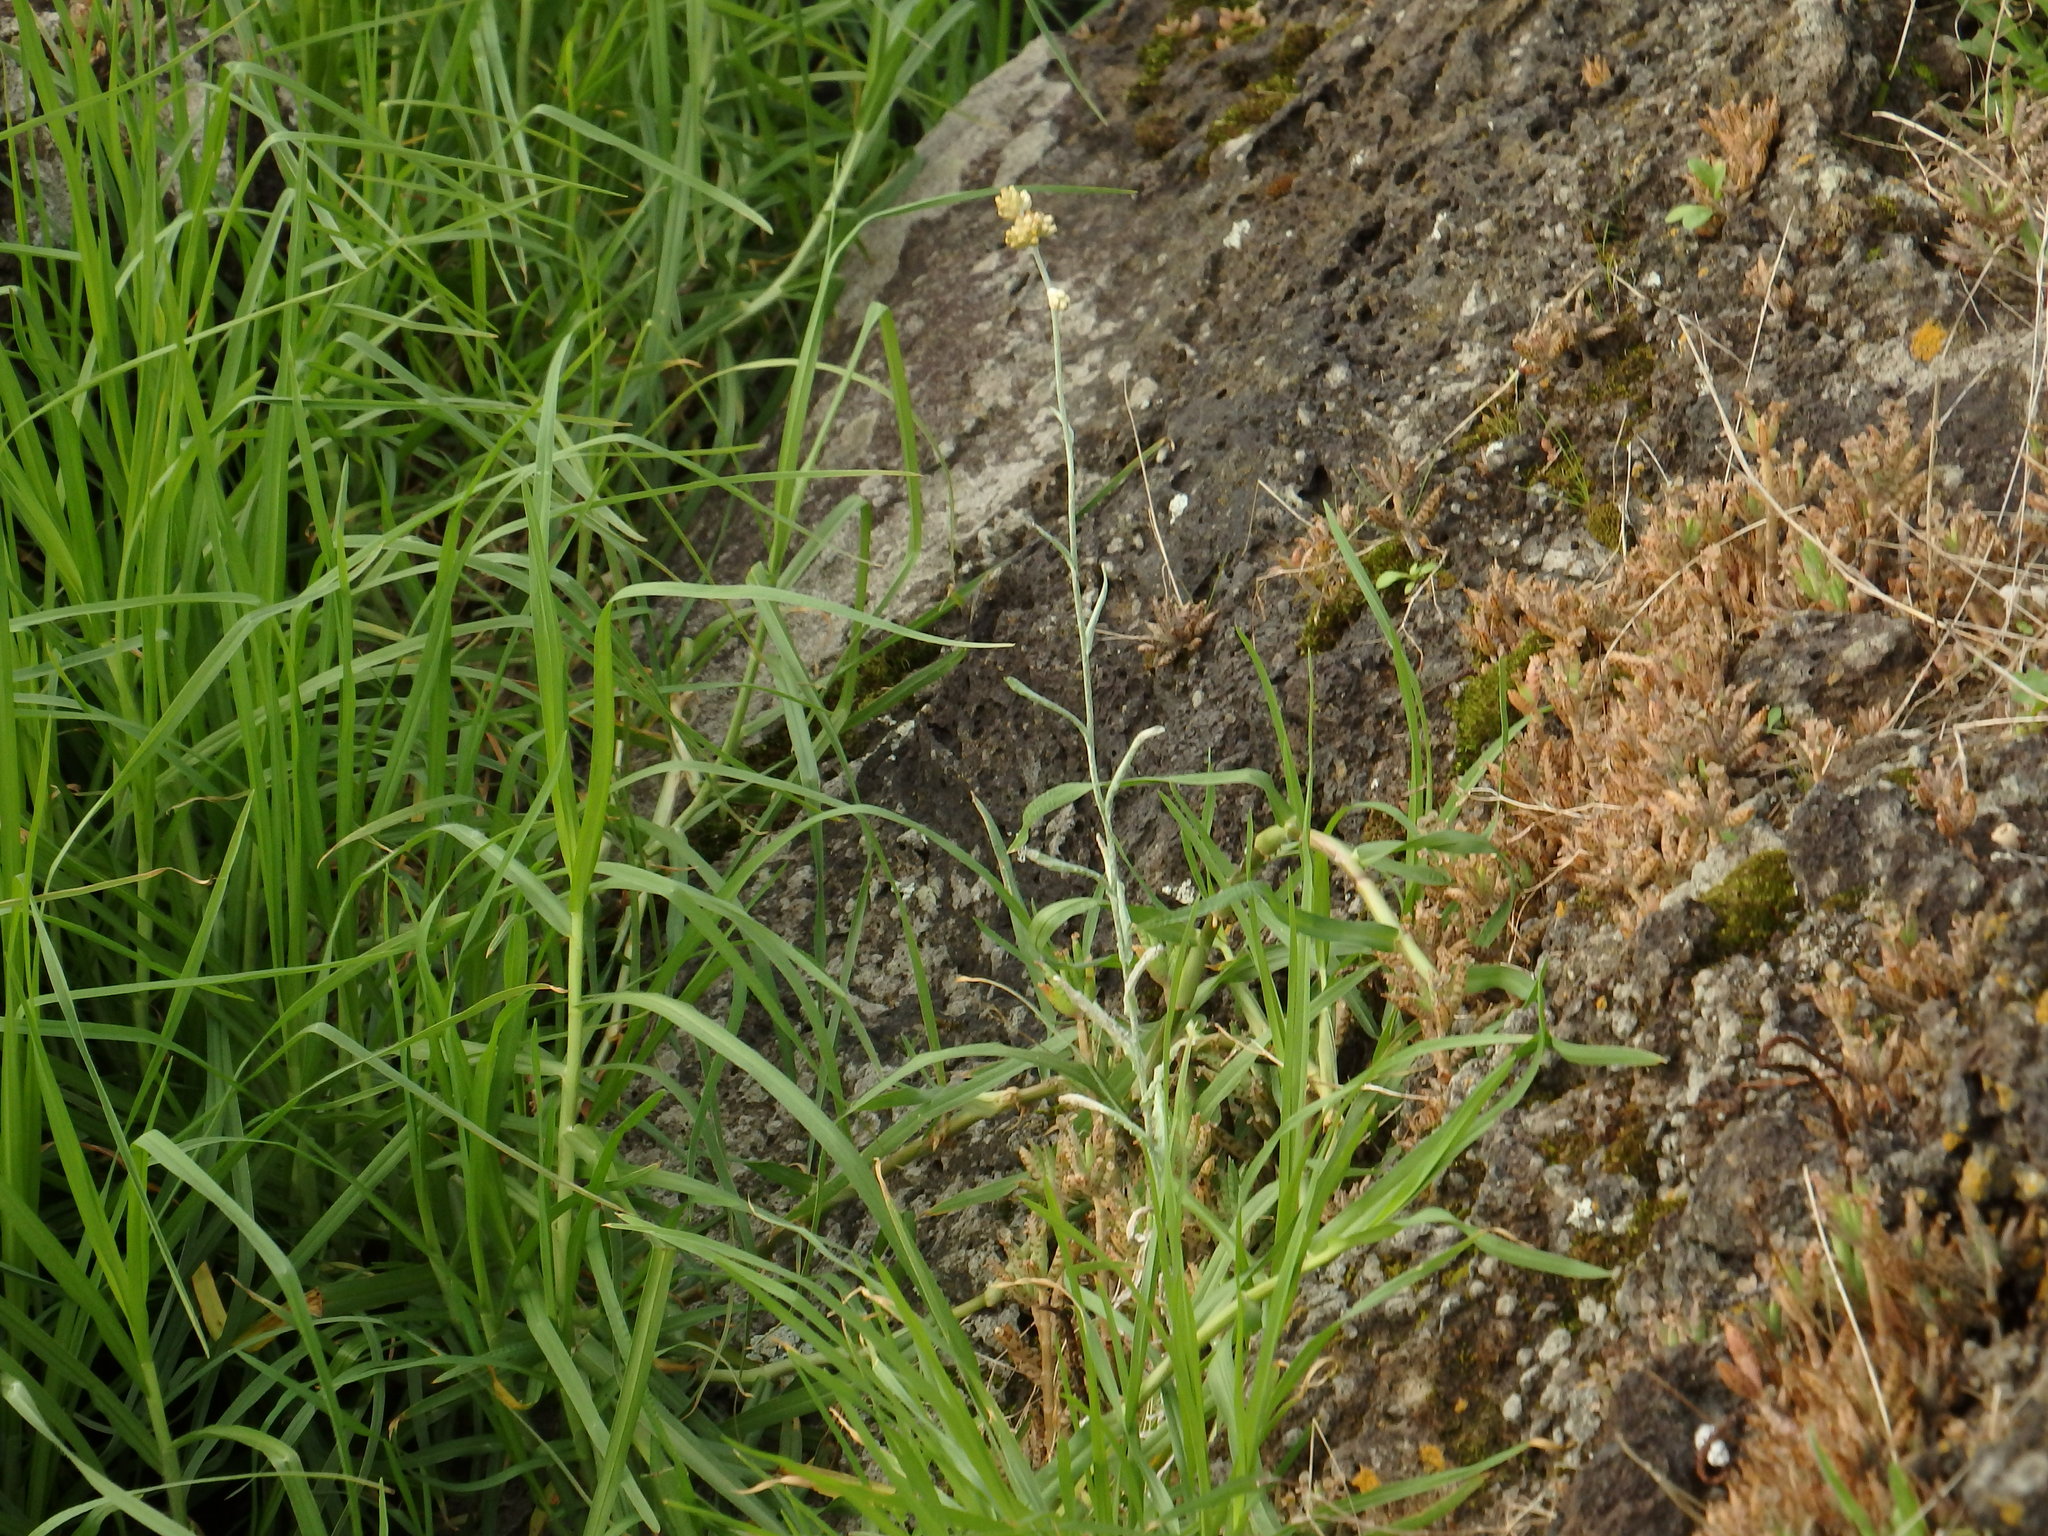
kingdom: Plantae
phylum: Tracheophyta
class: Magnoliopsida
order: Asterales
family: Asteraceae
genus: Helichrysum
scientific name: Helichrysum luteoalbum
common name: Daisy
